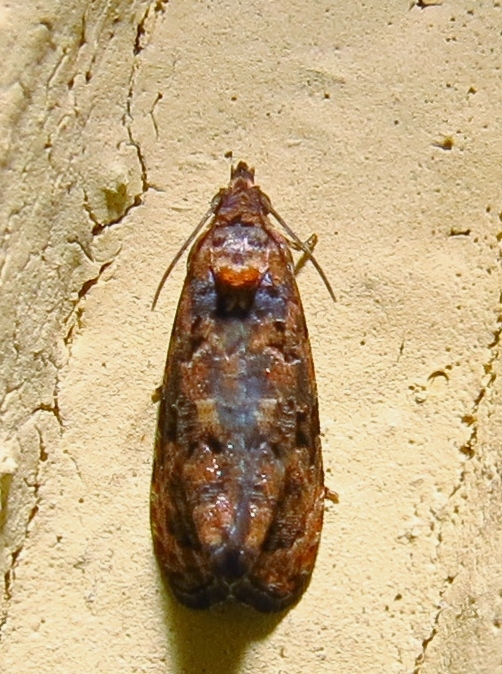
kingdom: Animalia
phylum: Arthropoda
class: Insecta
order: Lepidoptera
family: Tortricidae
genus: Endothenia
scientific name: Endothenia hebesana
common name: Verbena bud moth
